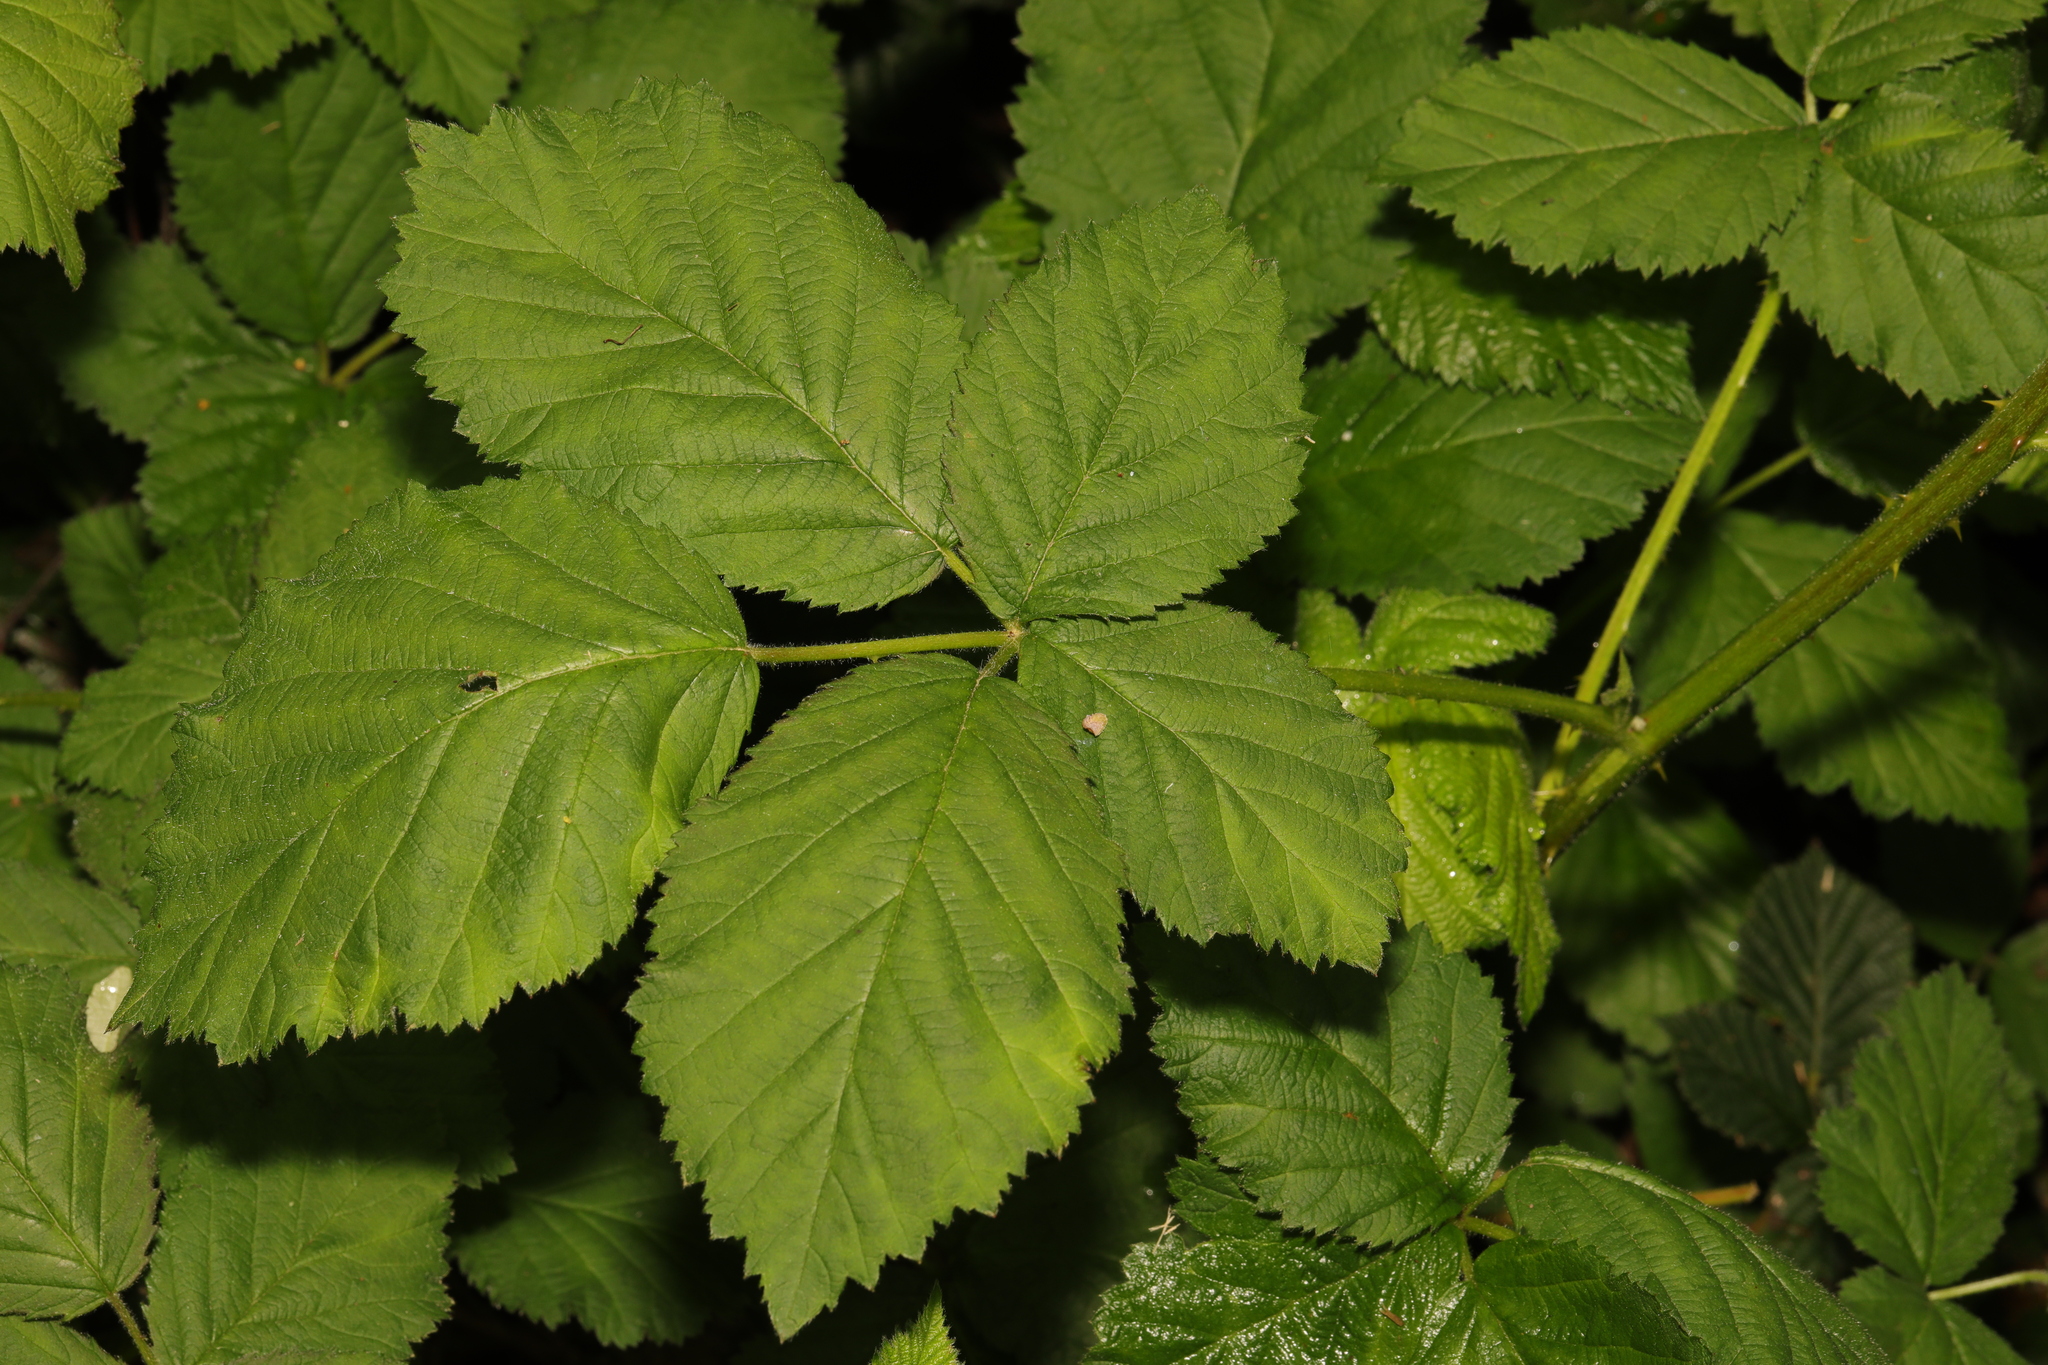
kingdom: Plantae
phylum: Tracheophyta
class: Magnoliopsida
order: Rosales
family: Rosaceae
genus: Rubus
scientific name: Rubus armeniacus
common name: Himalayan blackberry
